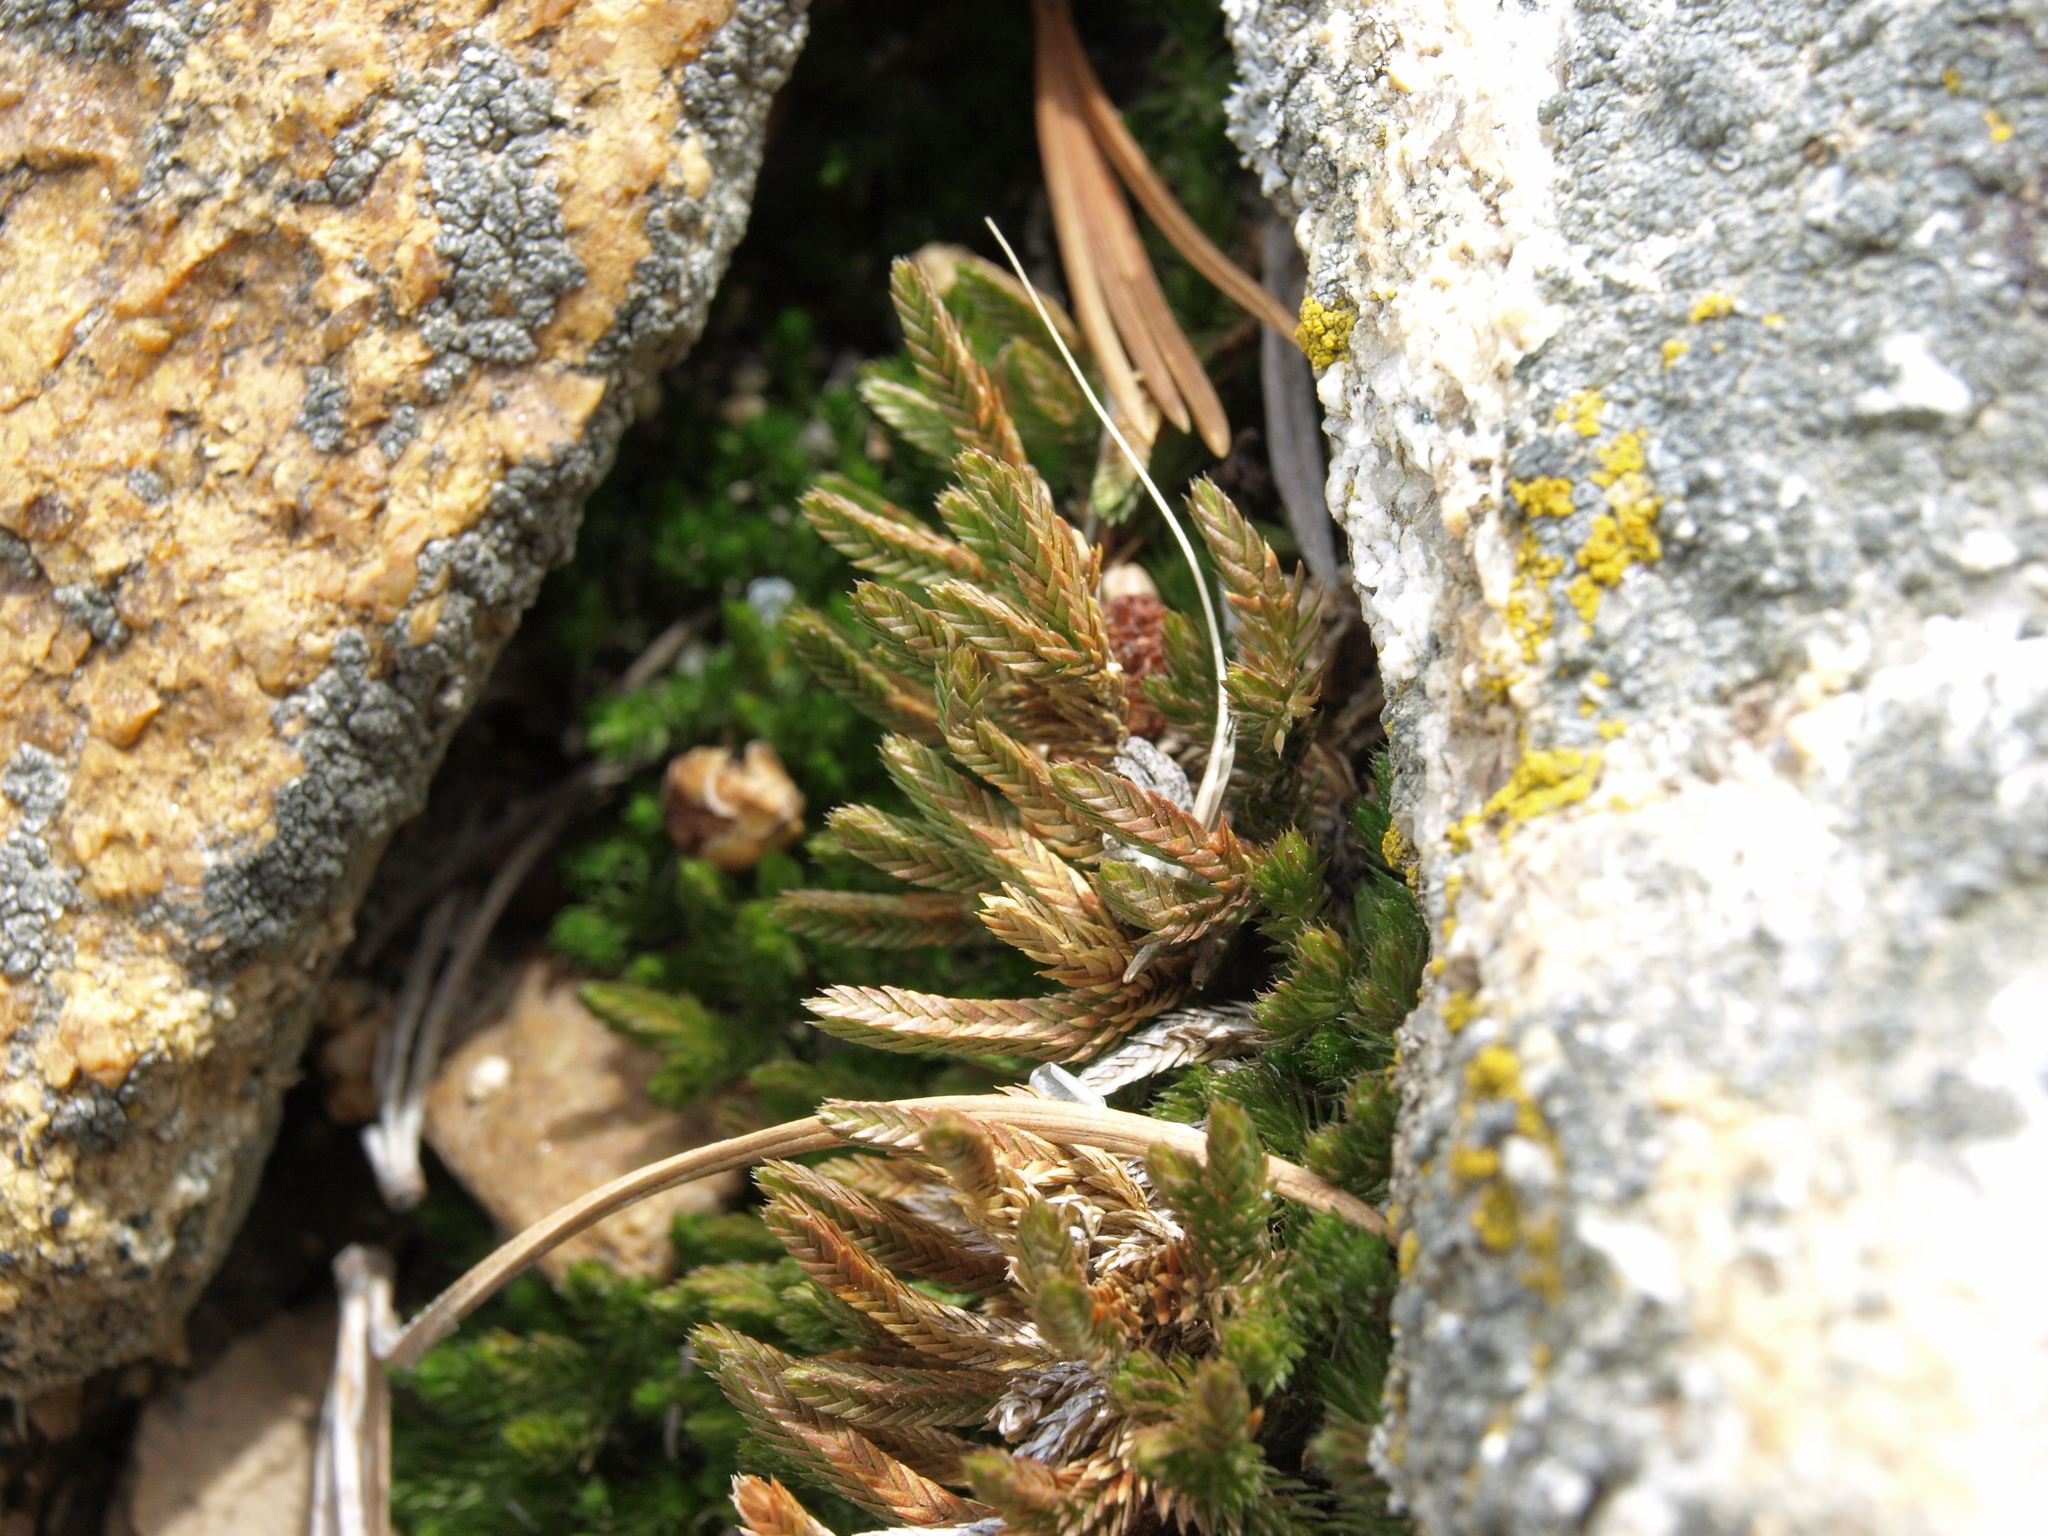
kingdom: Plantae
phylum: Tracheophyta
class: Lycopodiopsida
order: Selaginellales
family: Selaginellaceae
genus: Selaginella
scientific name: Selaginella watsonii
